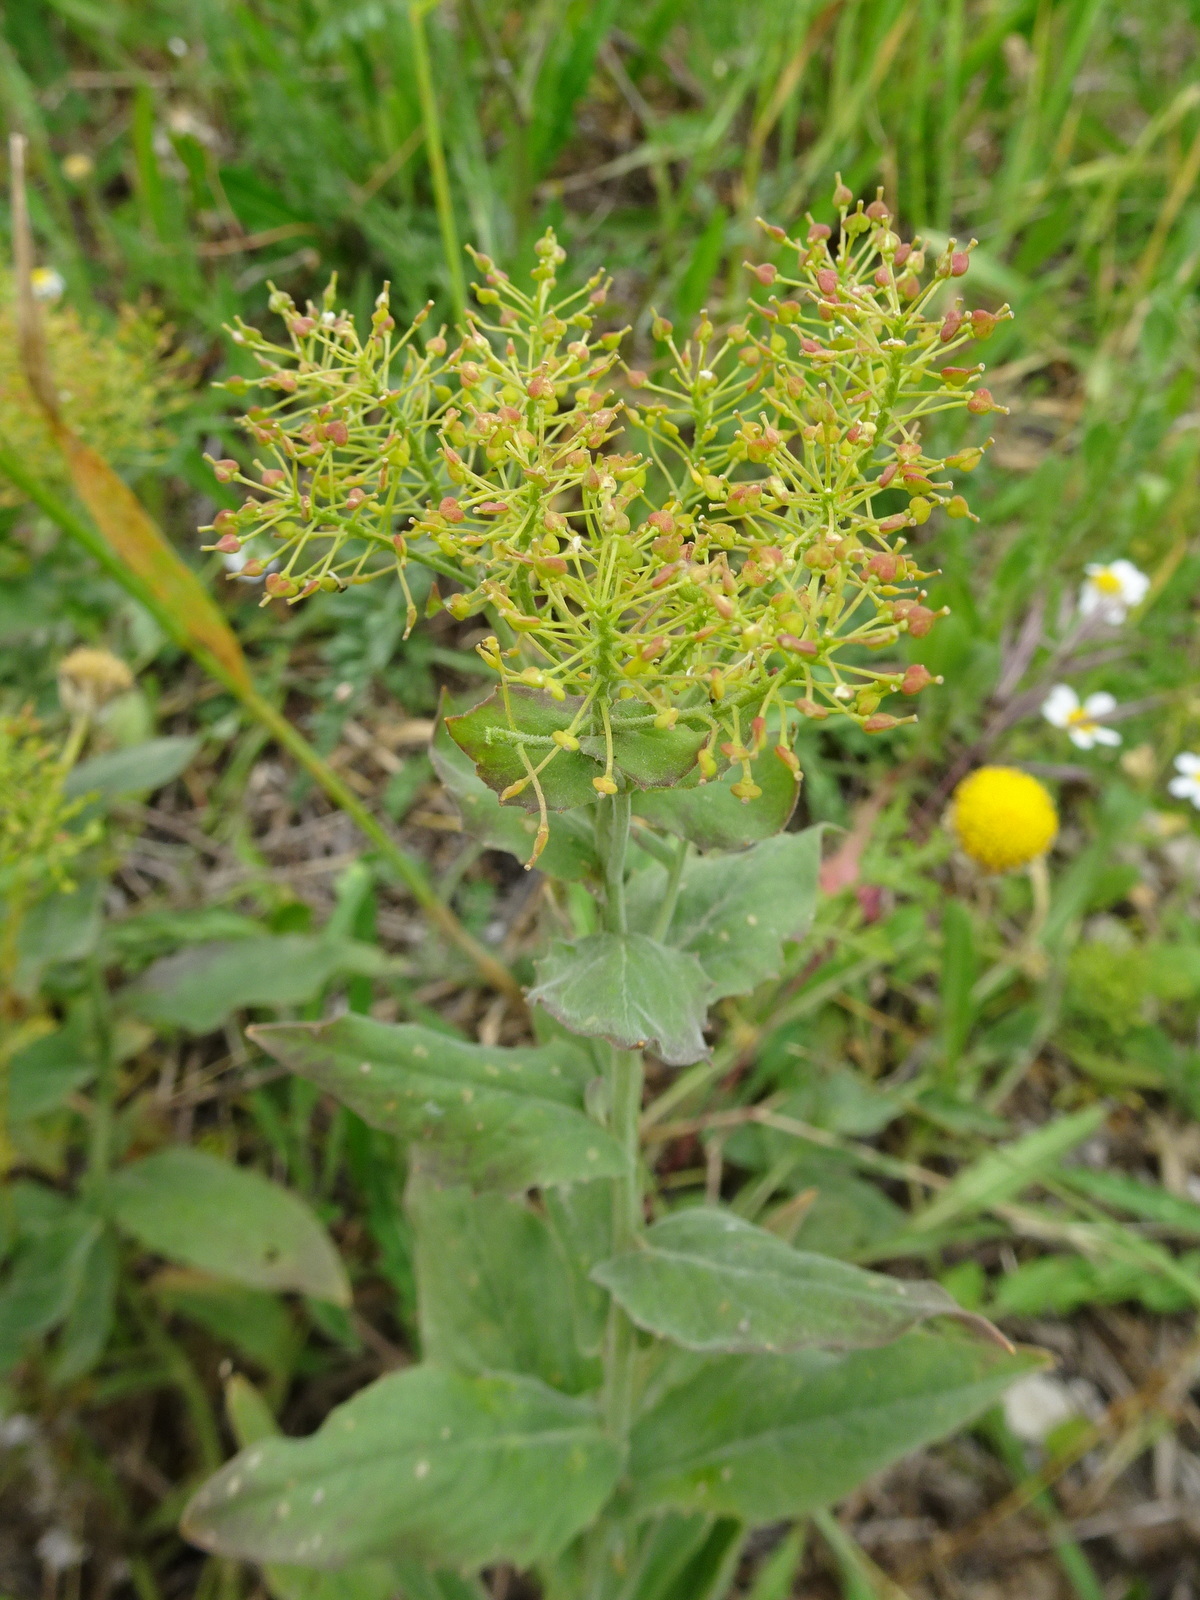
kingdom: Plantae
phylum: Tracheophyta
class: Magnoliopsida
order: Brassicales
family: Brassicaceae
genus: Lepidium
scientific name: Lepidium draba
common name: Hoary cress
